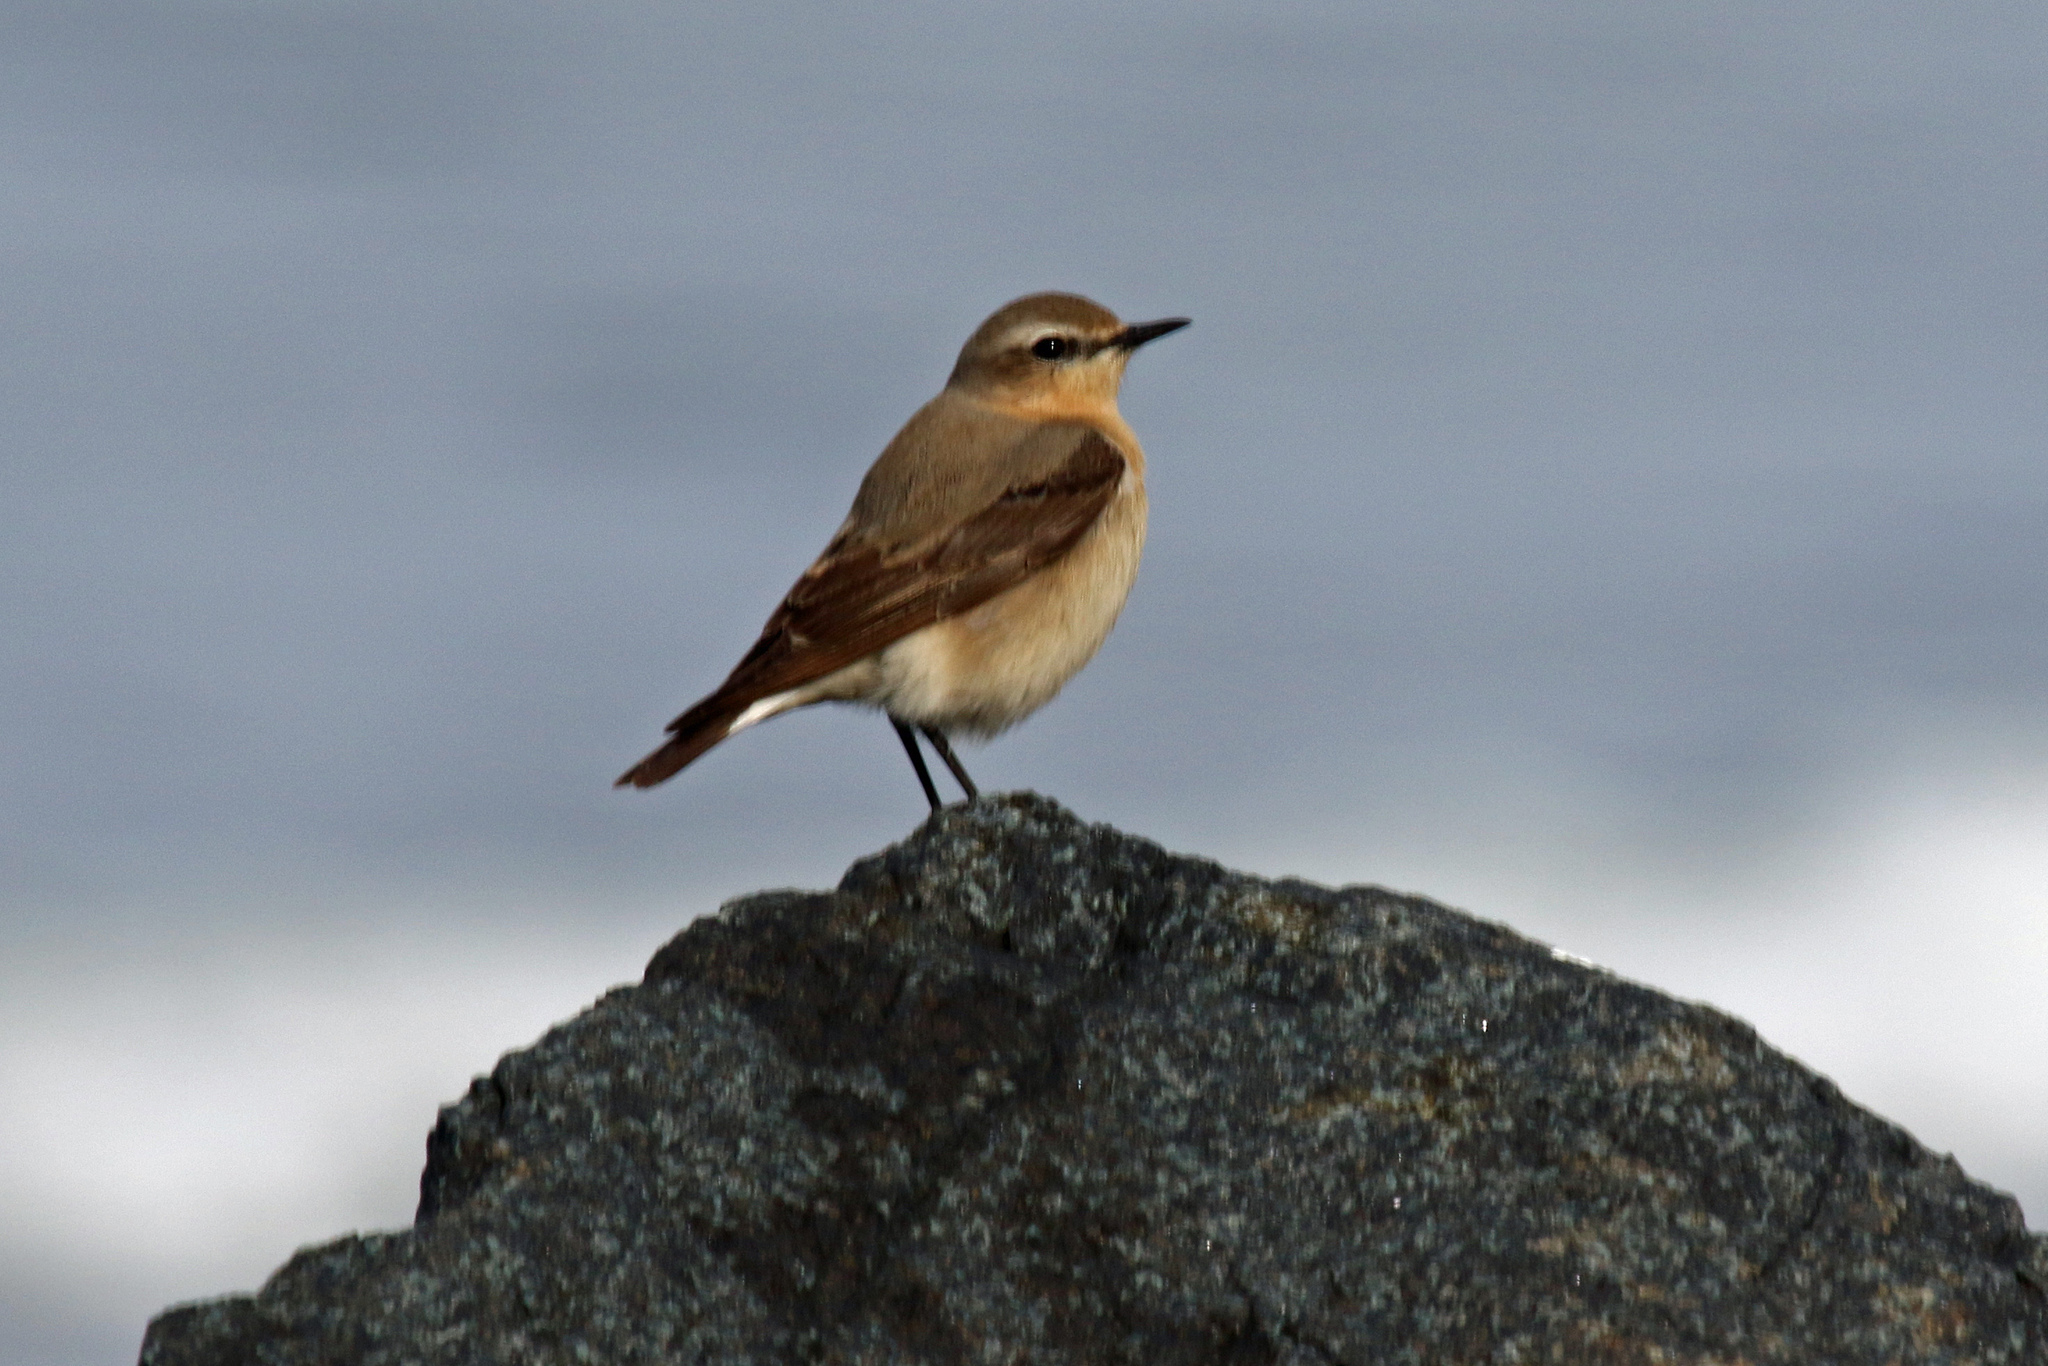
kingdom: Animalia
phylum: Chordata
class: Aves
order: Passeriformes
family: Muscicapidae
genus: Oenanthe
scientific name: Oenanthe oenanthe
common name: Northern wheatear
